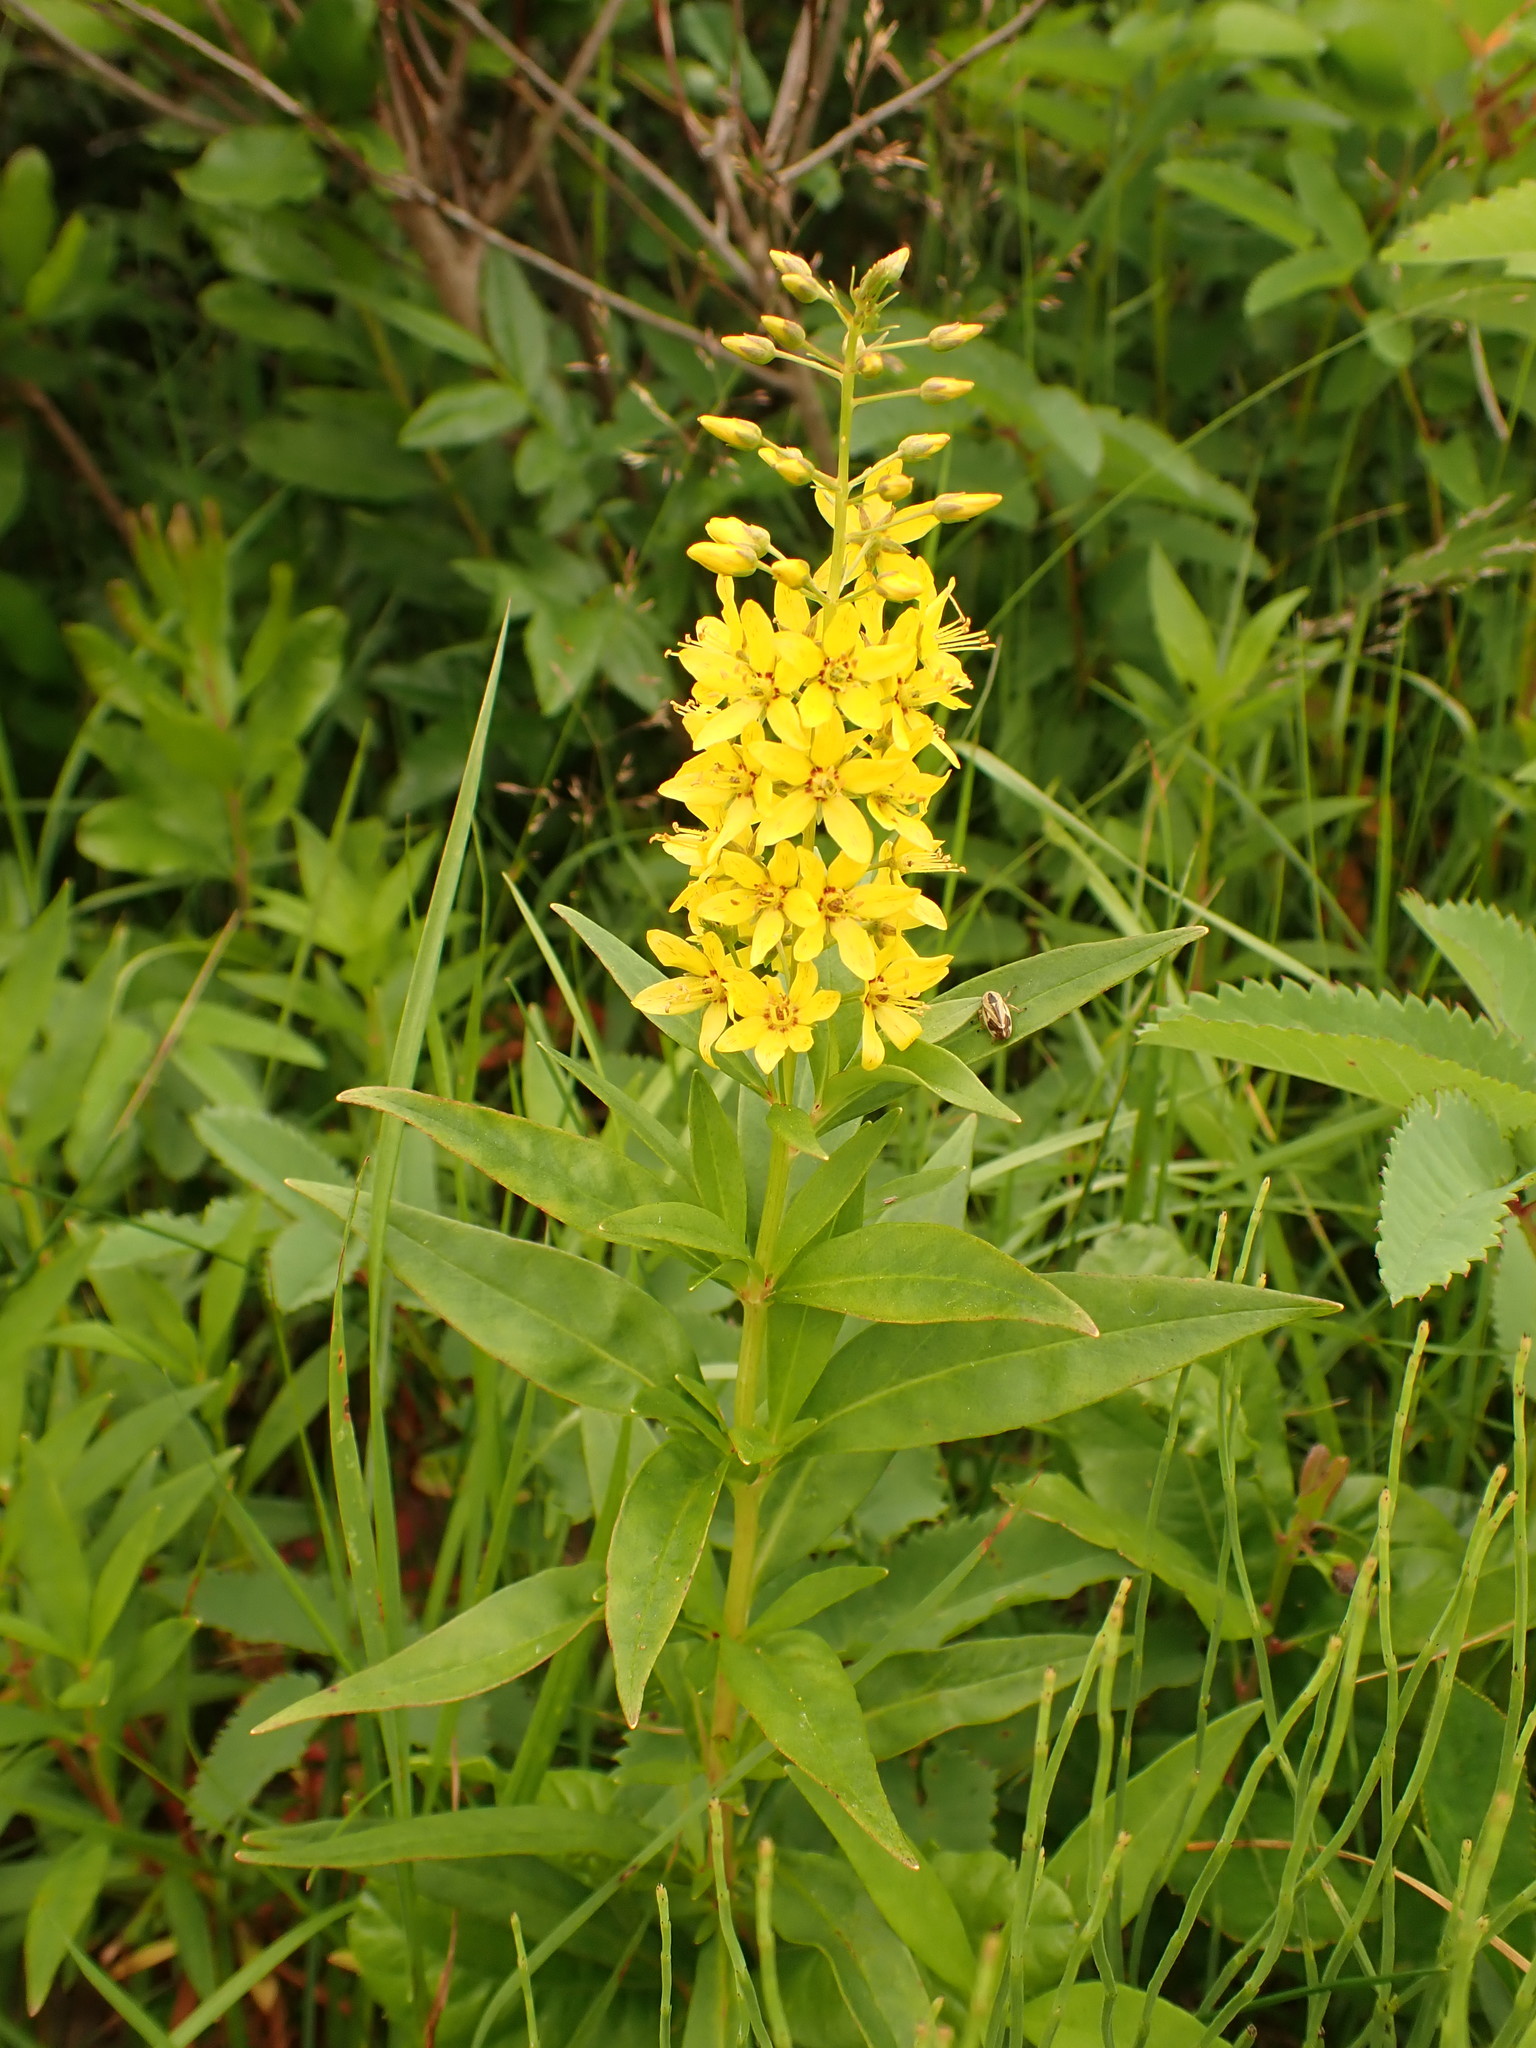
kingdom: Plantae
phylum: Tracheophyta
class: Magnoliopsida
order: Ericales
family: Primulaceae
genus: Lysimachia
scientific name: Lysimachia terrestris
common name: Lake loosestrife
